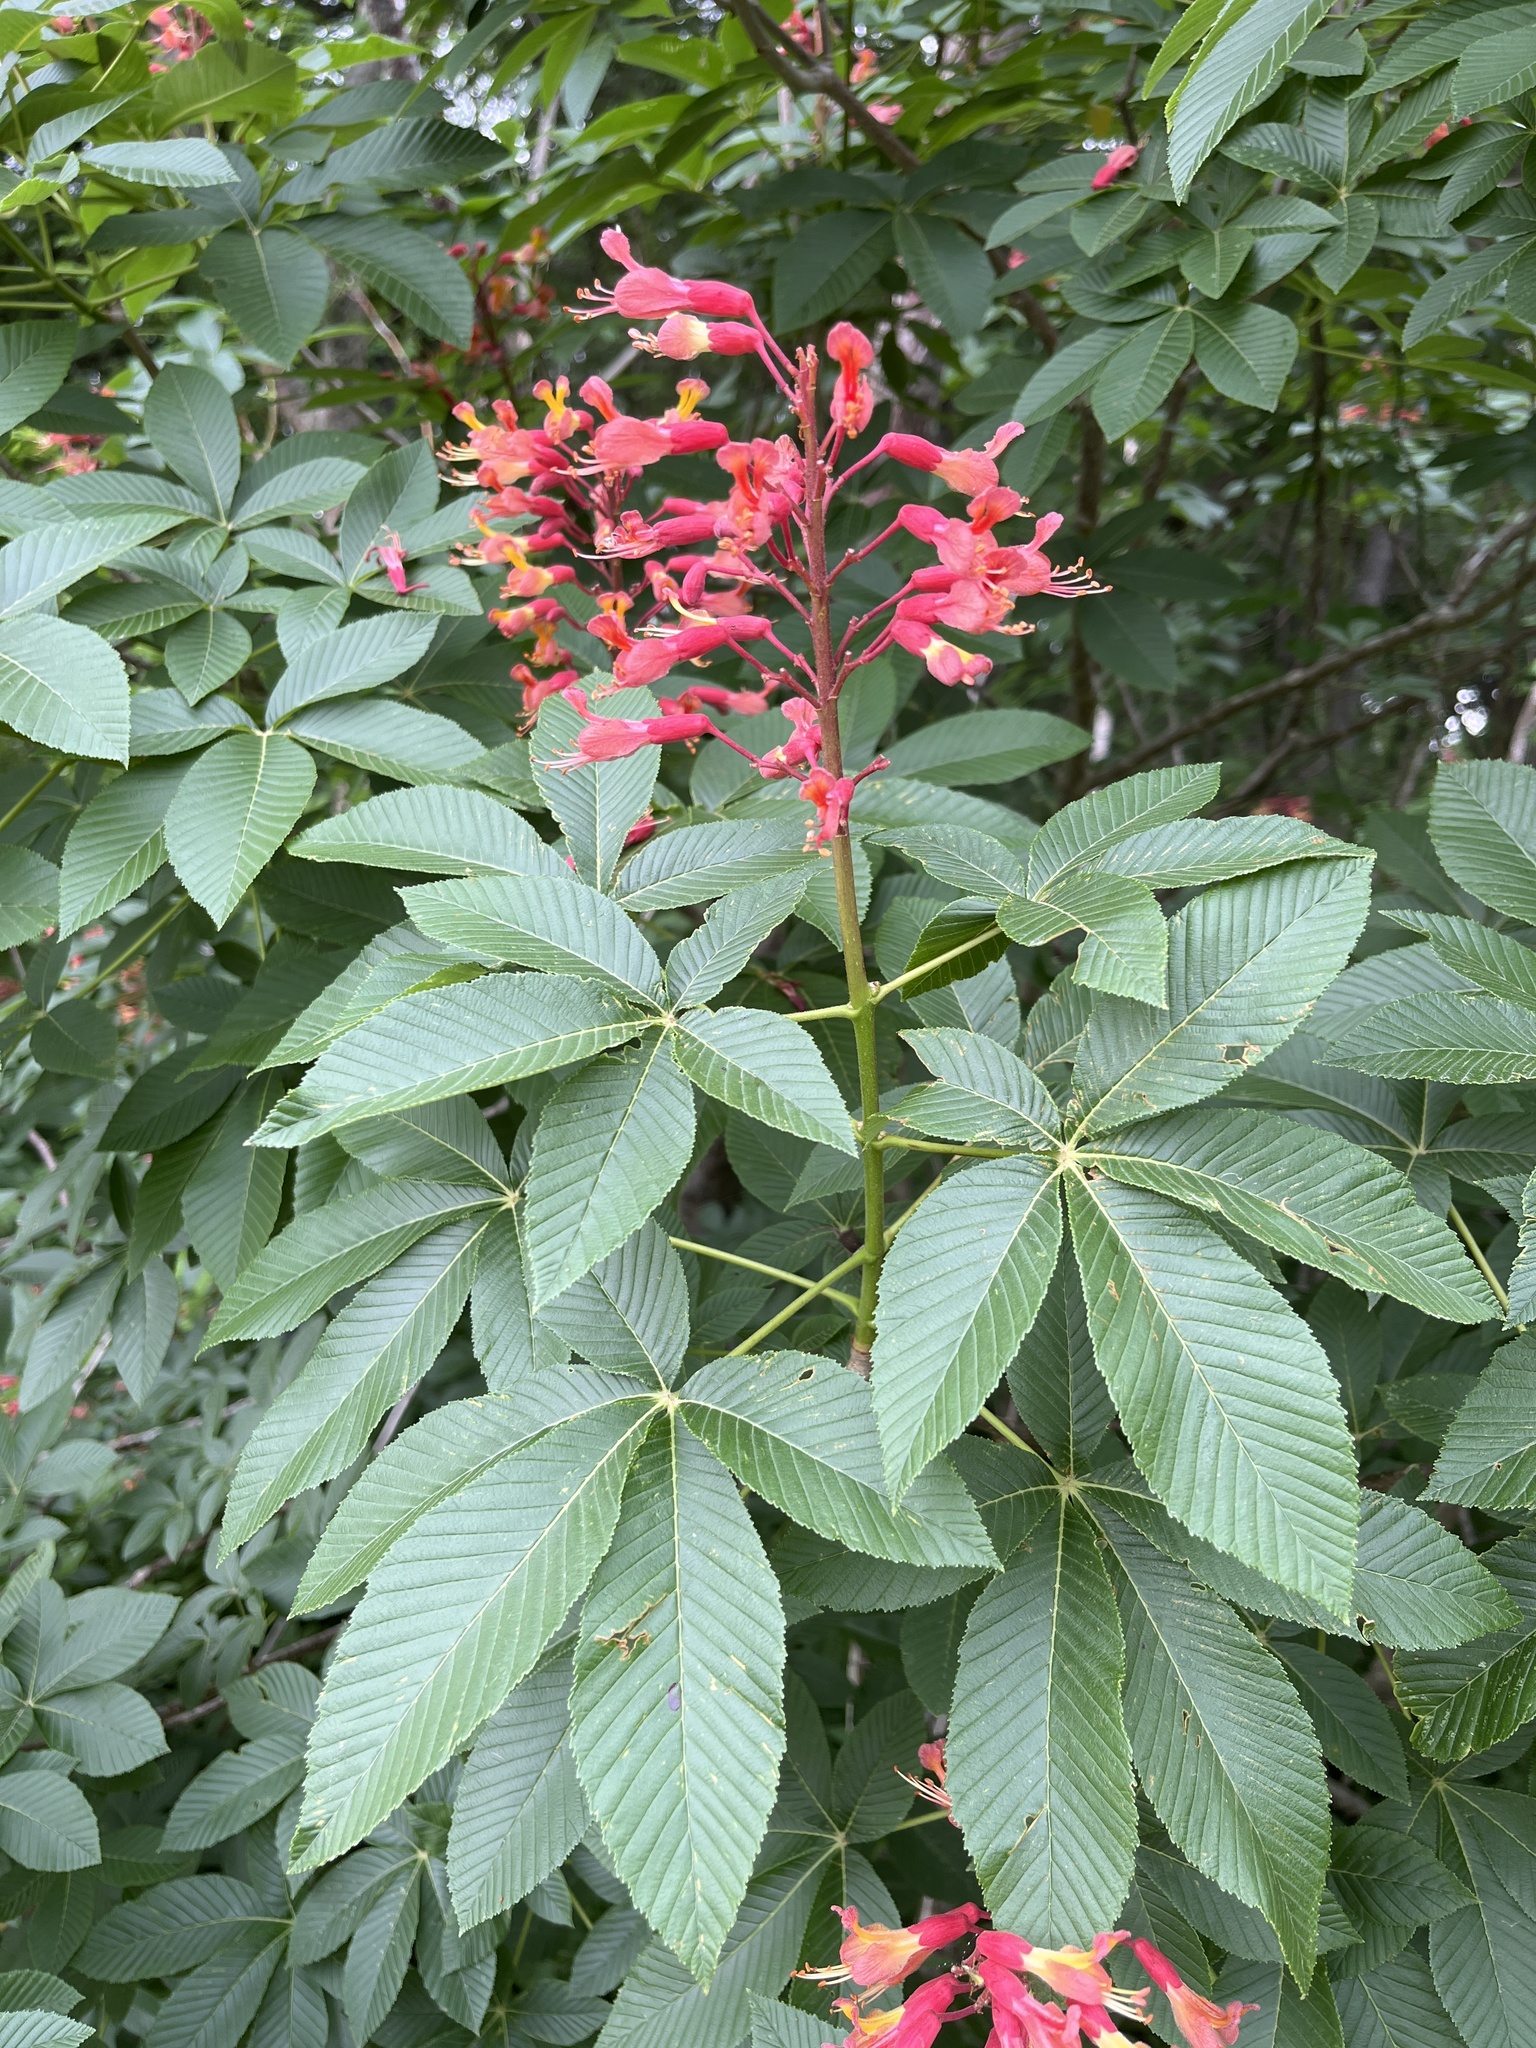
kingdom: Plantae
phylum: Tracheophyta
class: Magnoliopsida
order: Sapindales
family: Sapindaceae
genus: Aesculus
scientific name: Aesculus pavia
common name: Red buckeye
